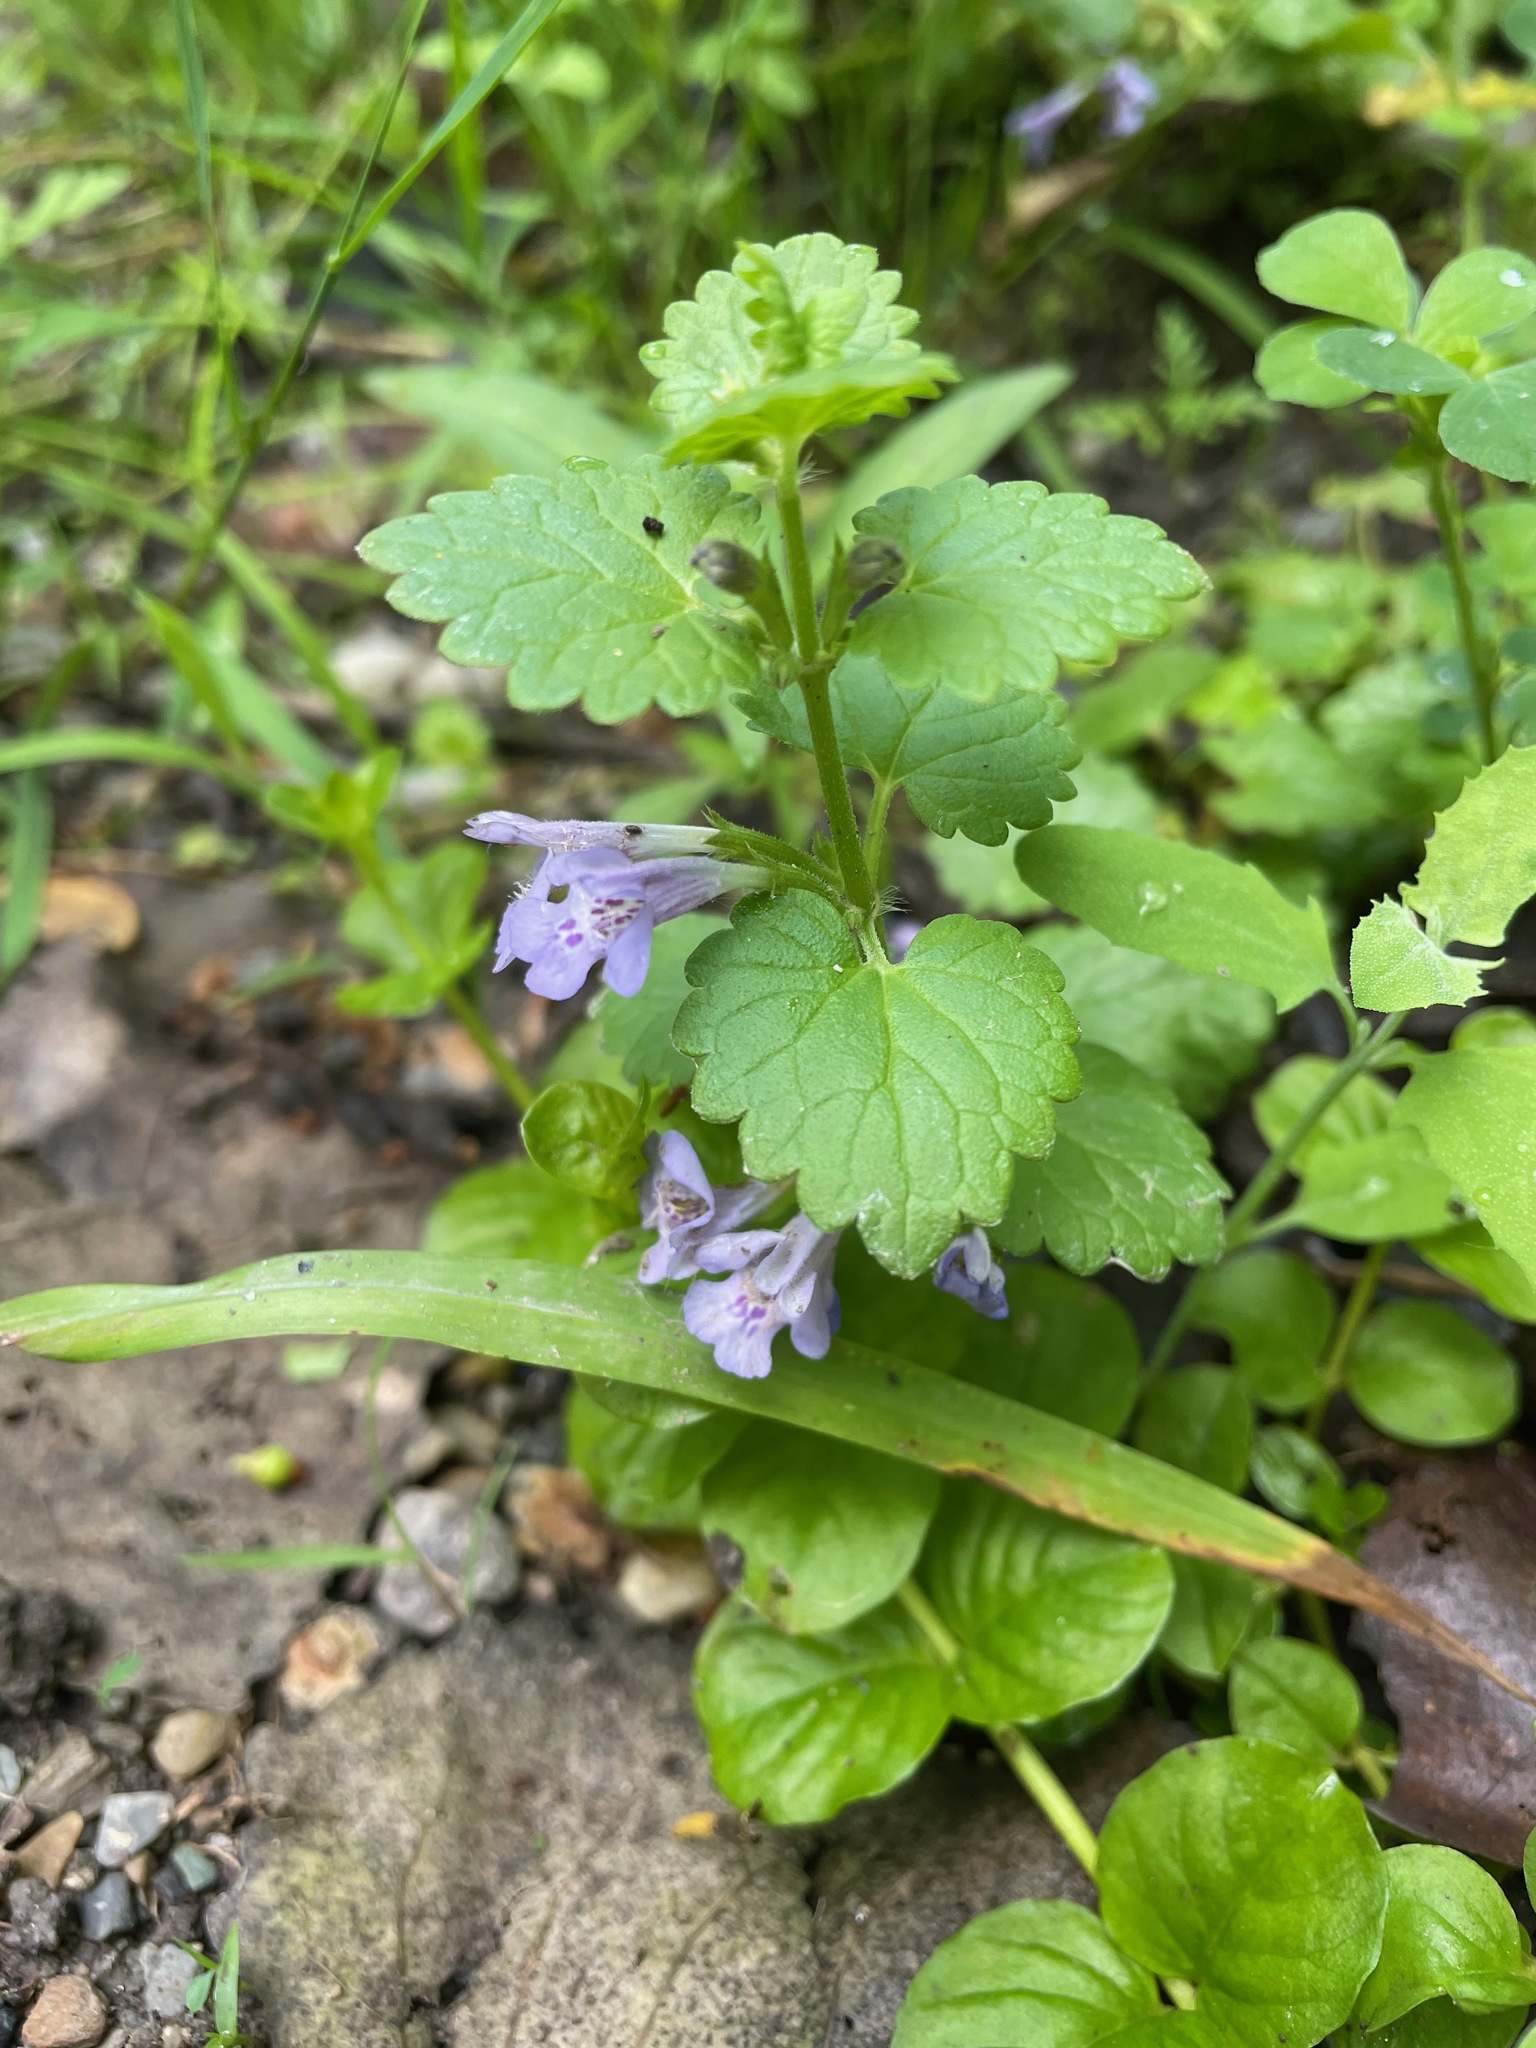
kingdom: Plantae
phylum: Tracheophyta
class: Magnoliopsida
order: Lamiales
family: Lamiaceae
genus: Glechoma
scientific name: Glechoma hederacea
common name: Ground ivy
